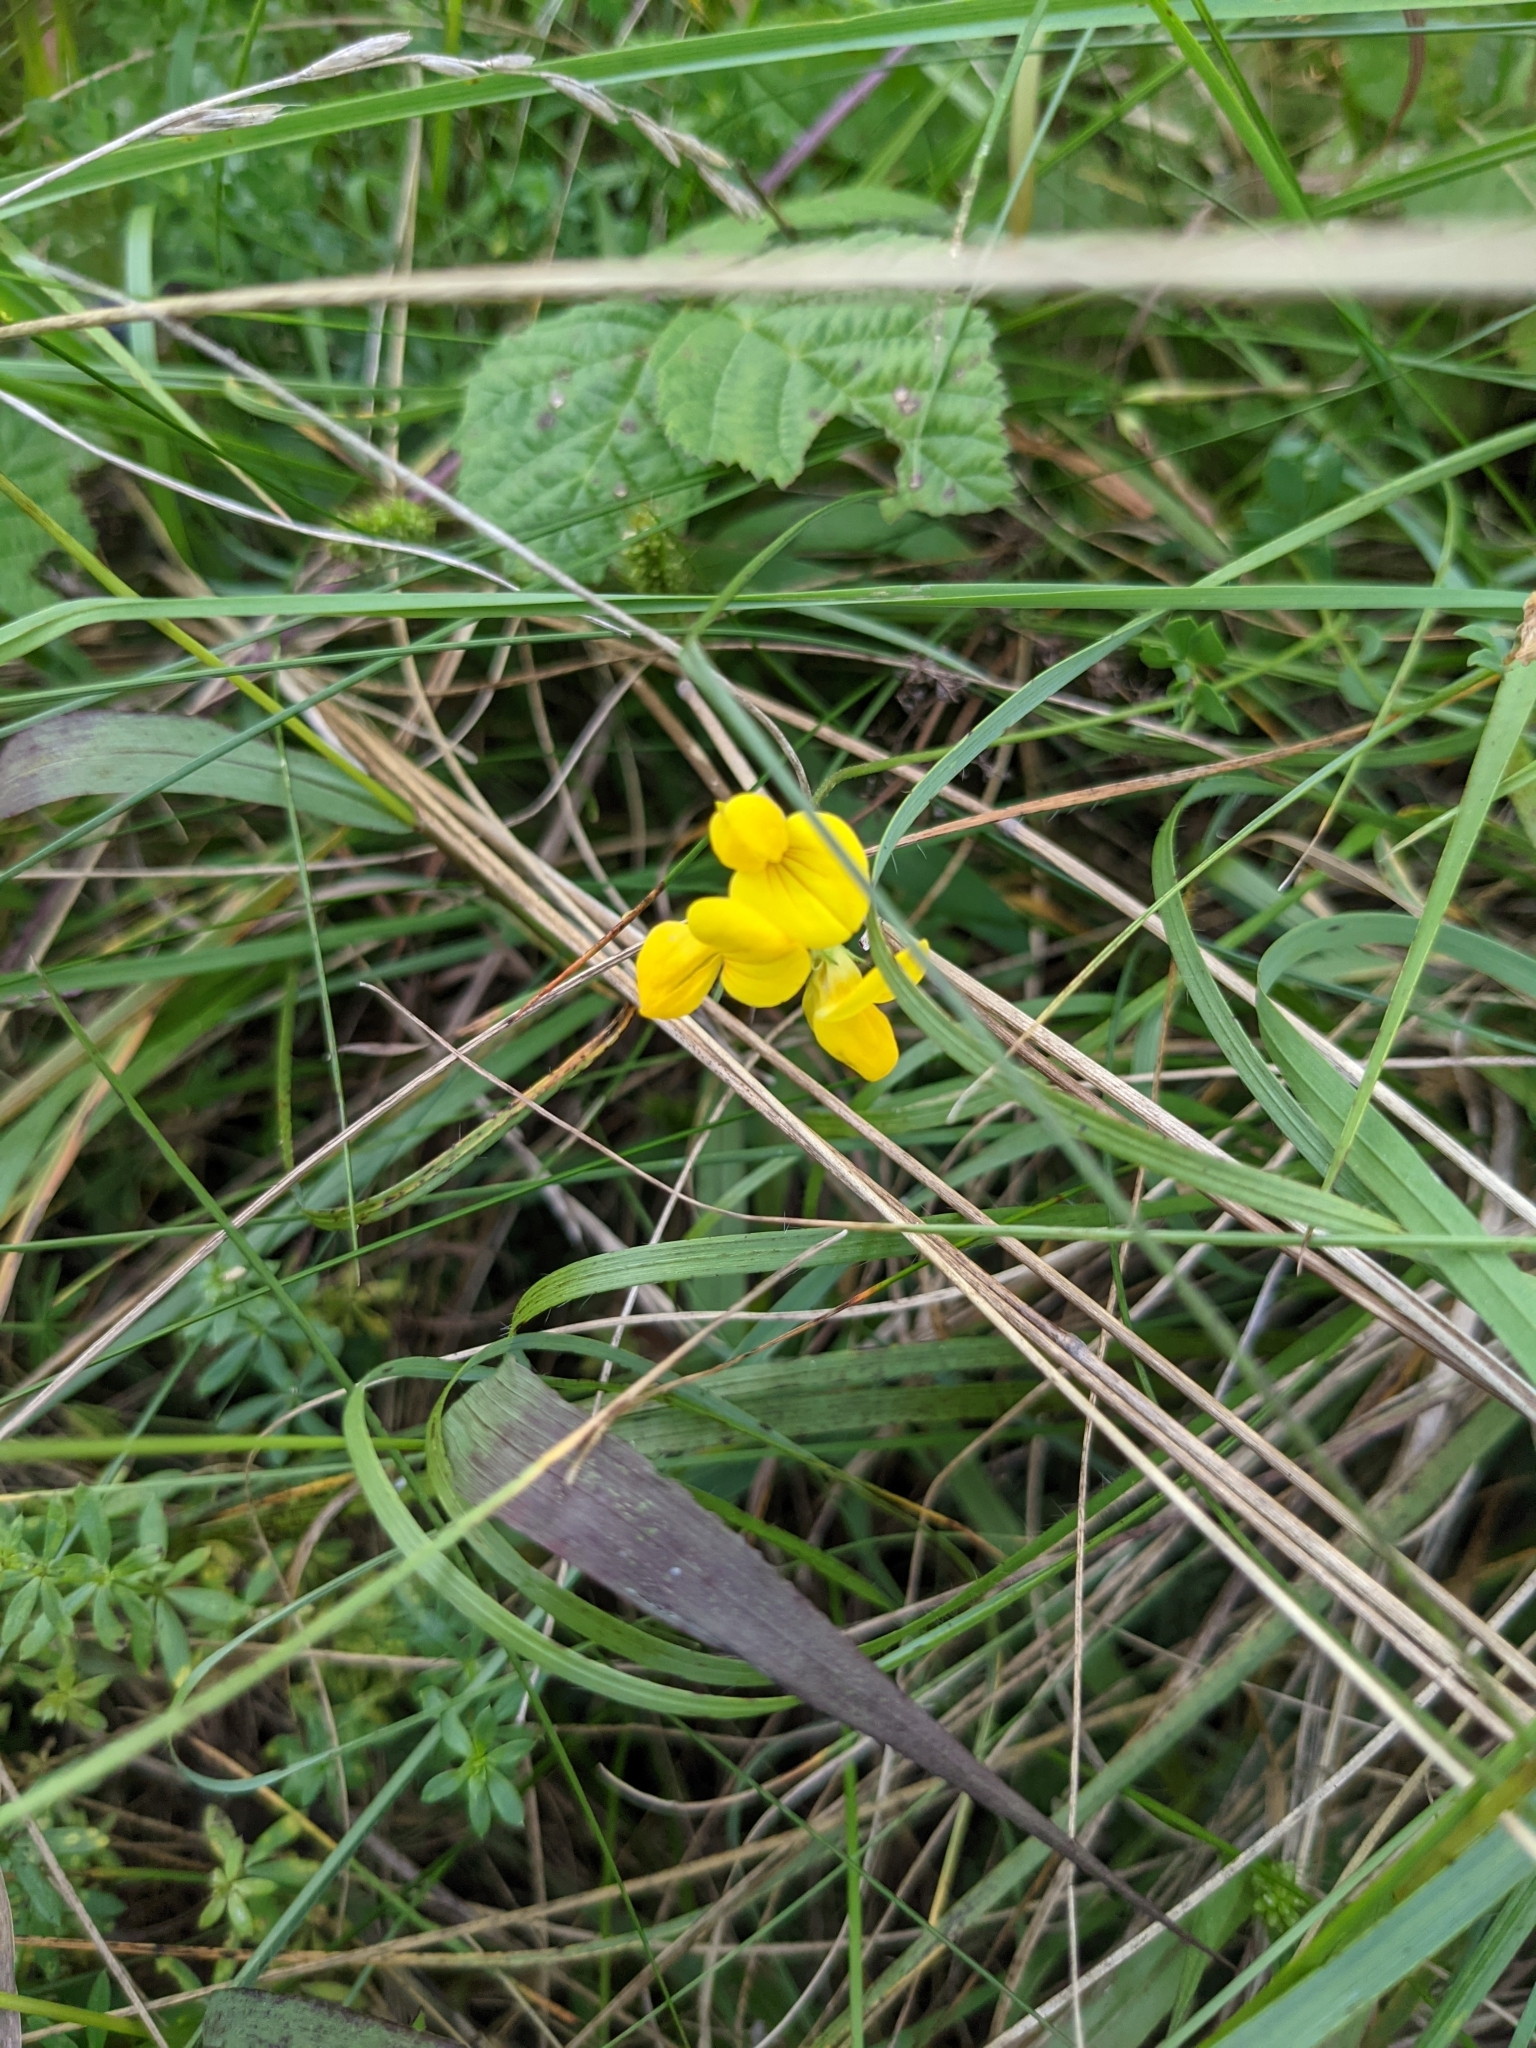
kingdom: Plantae
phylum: Tracheophyta
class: Magnoliopsida
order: Fabales
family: Fabaceae
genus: Lotus
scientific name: Lotus corniculatus
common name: Common bird's-foot-trefoil
